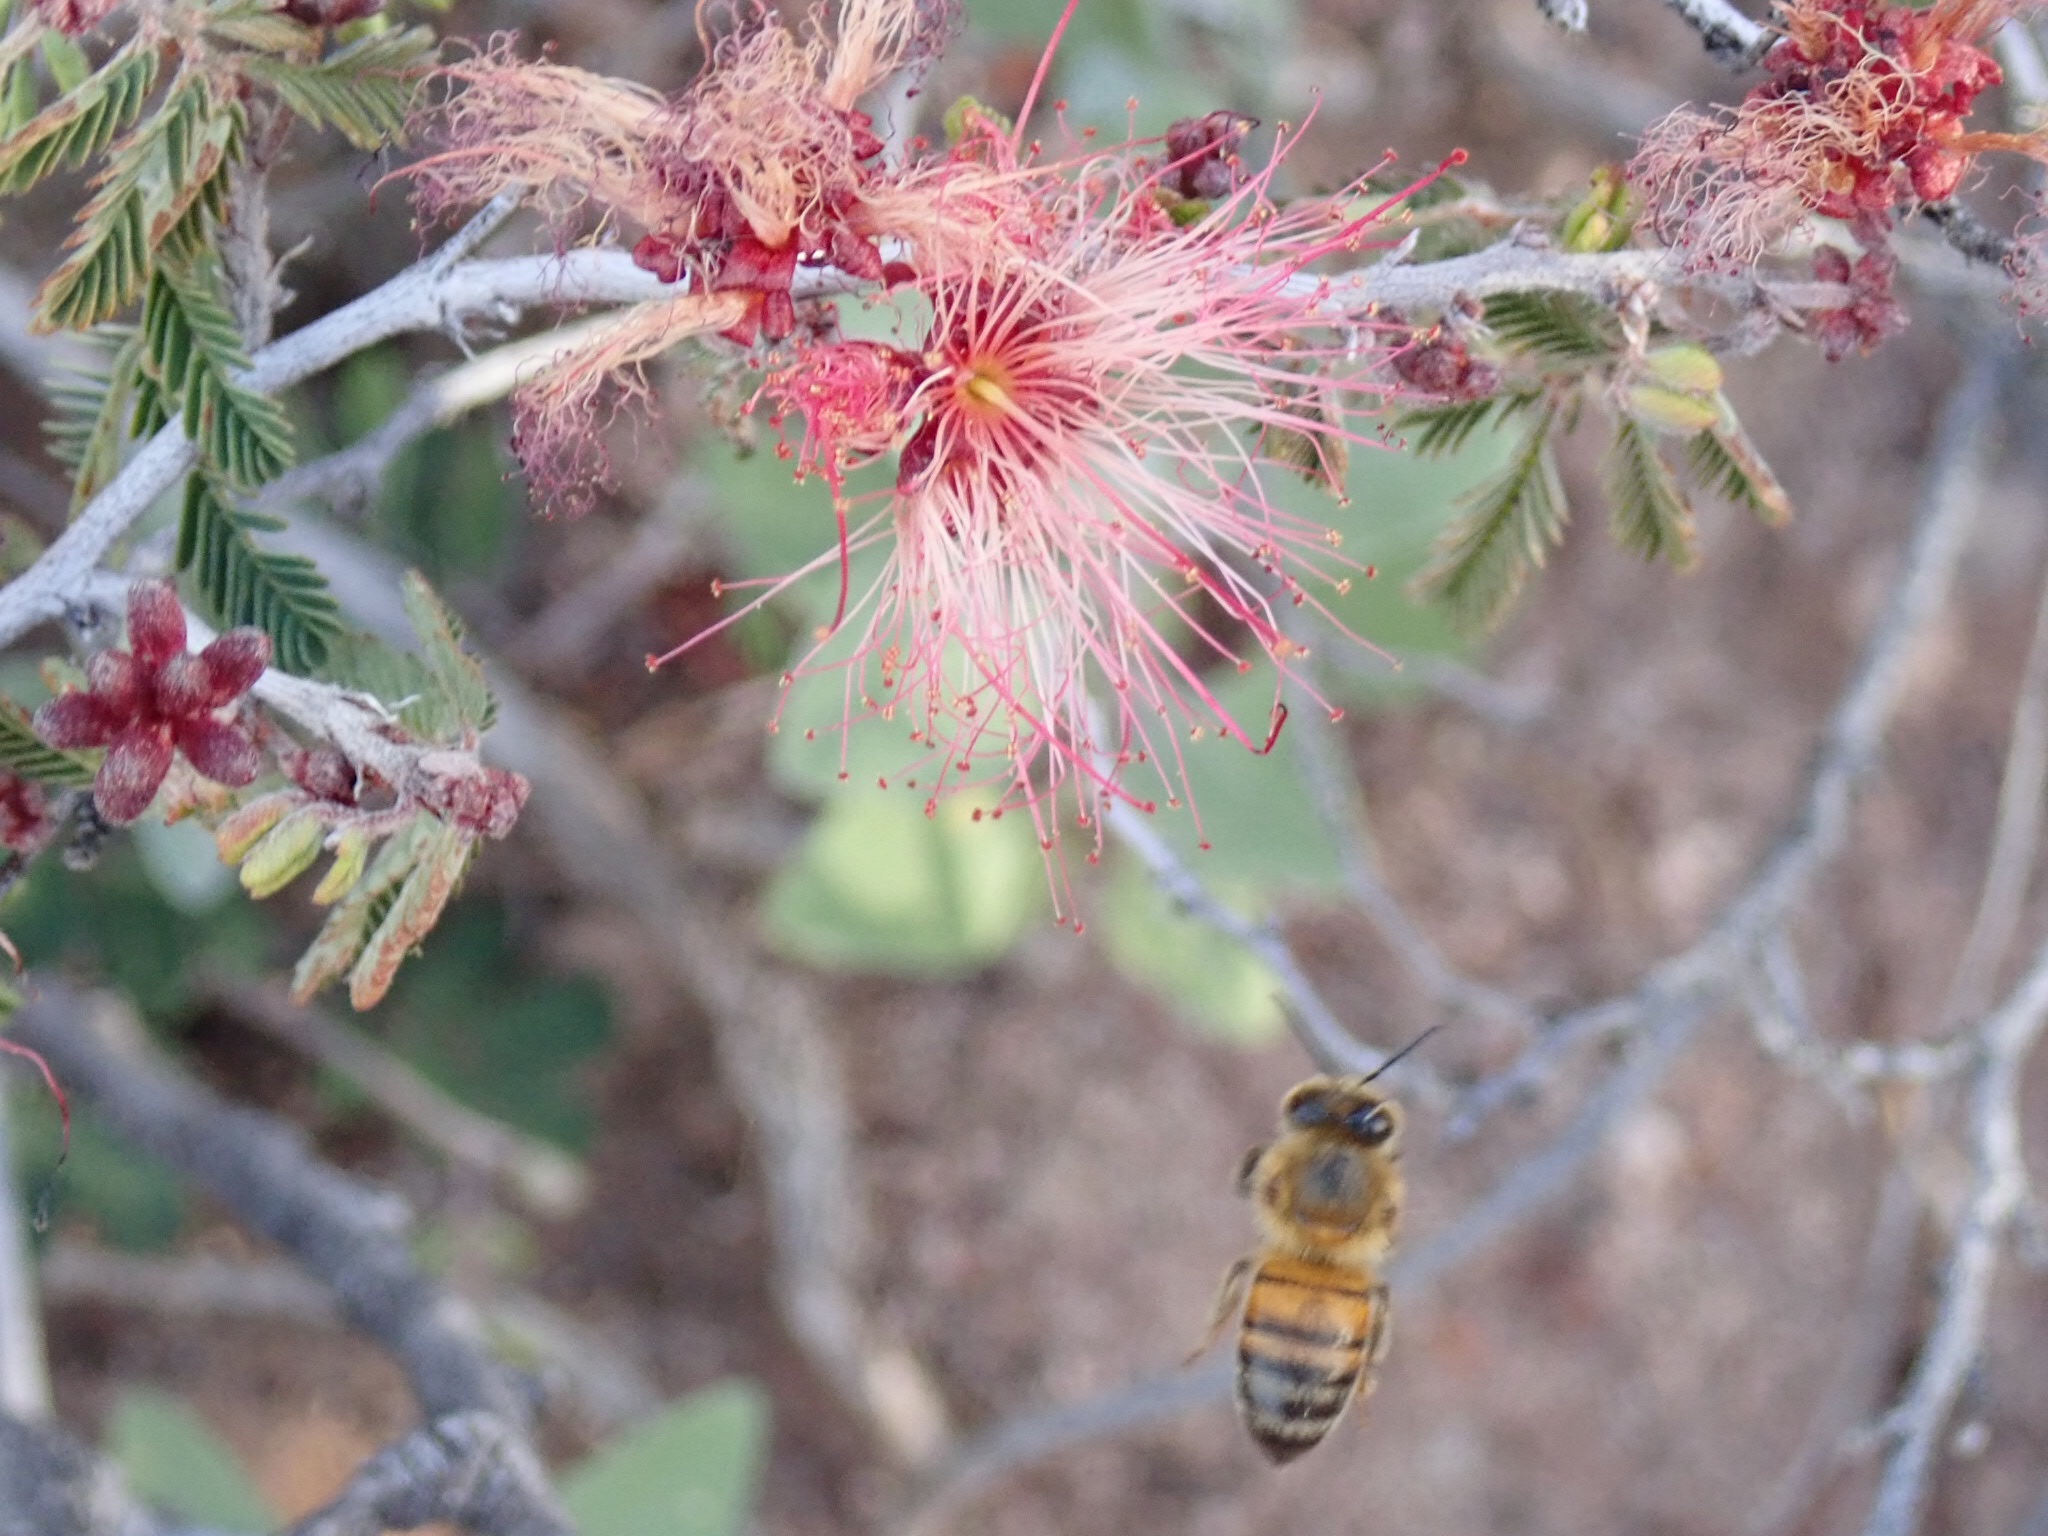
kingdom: Animalia
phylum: Arthropoda
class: Insecta
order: Hymenoptera
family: Apidae
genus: Apis
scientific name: Apis mellifera
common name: Honey bee
